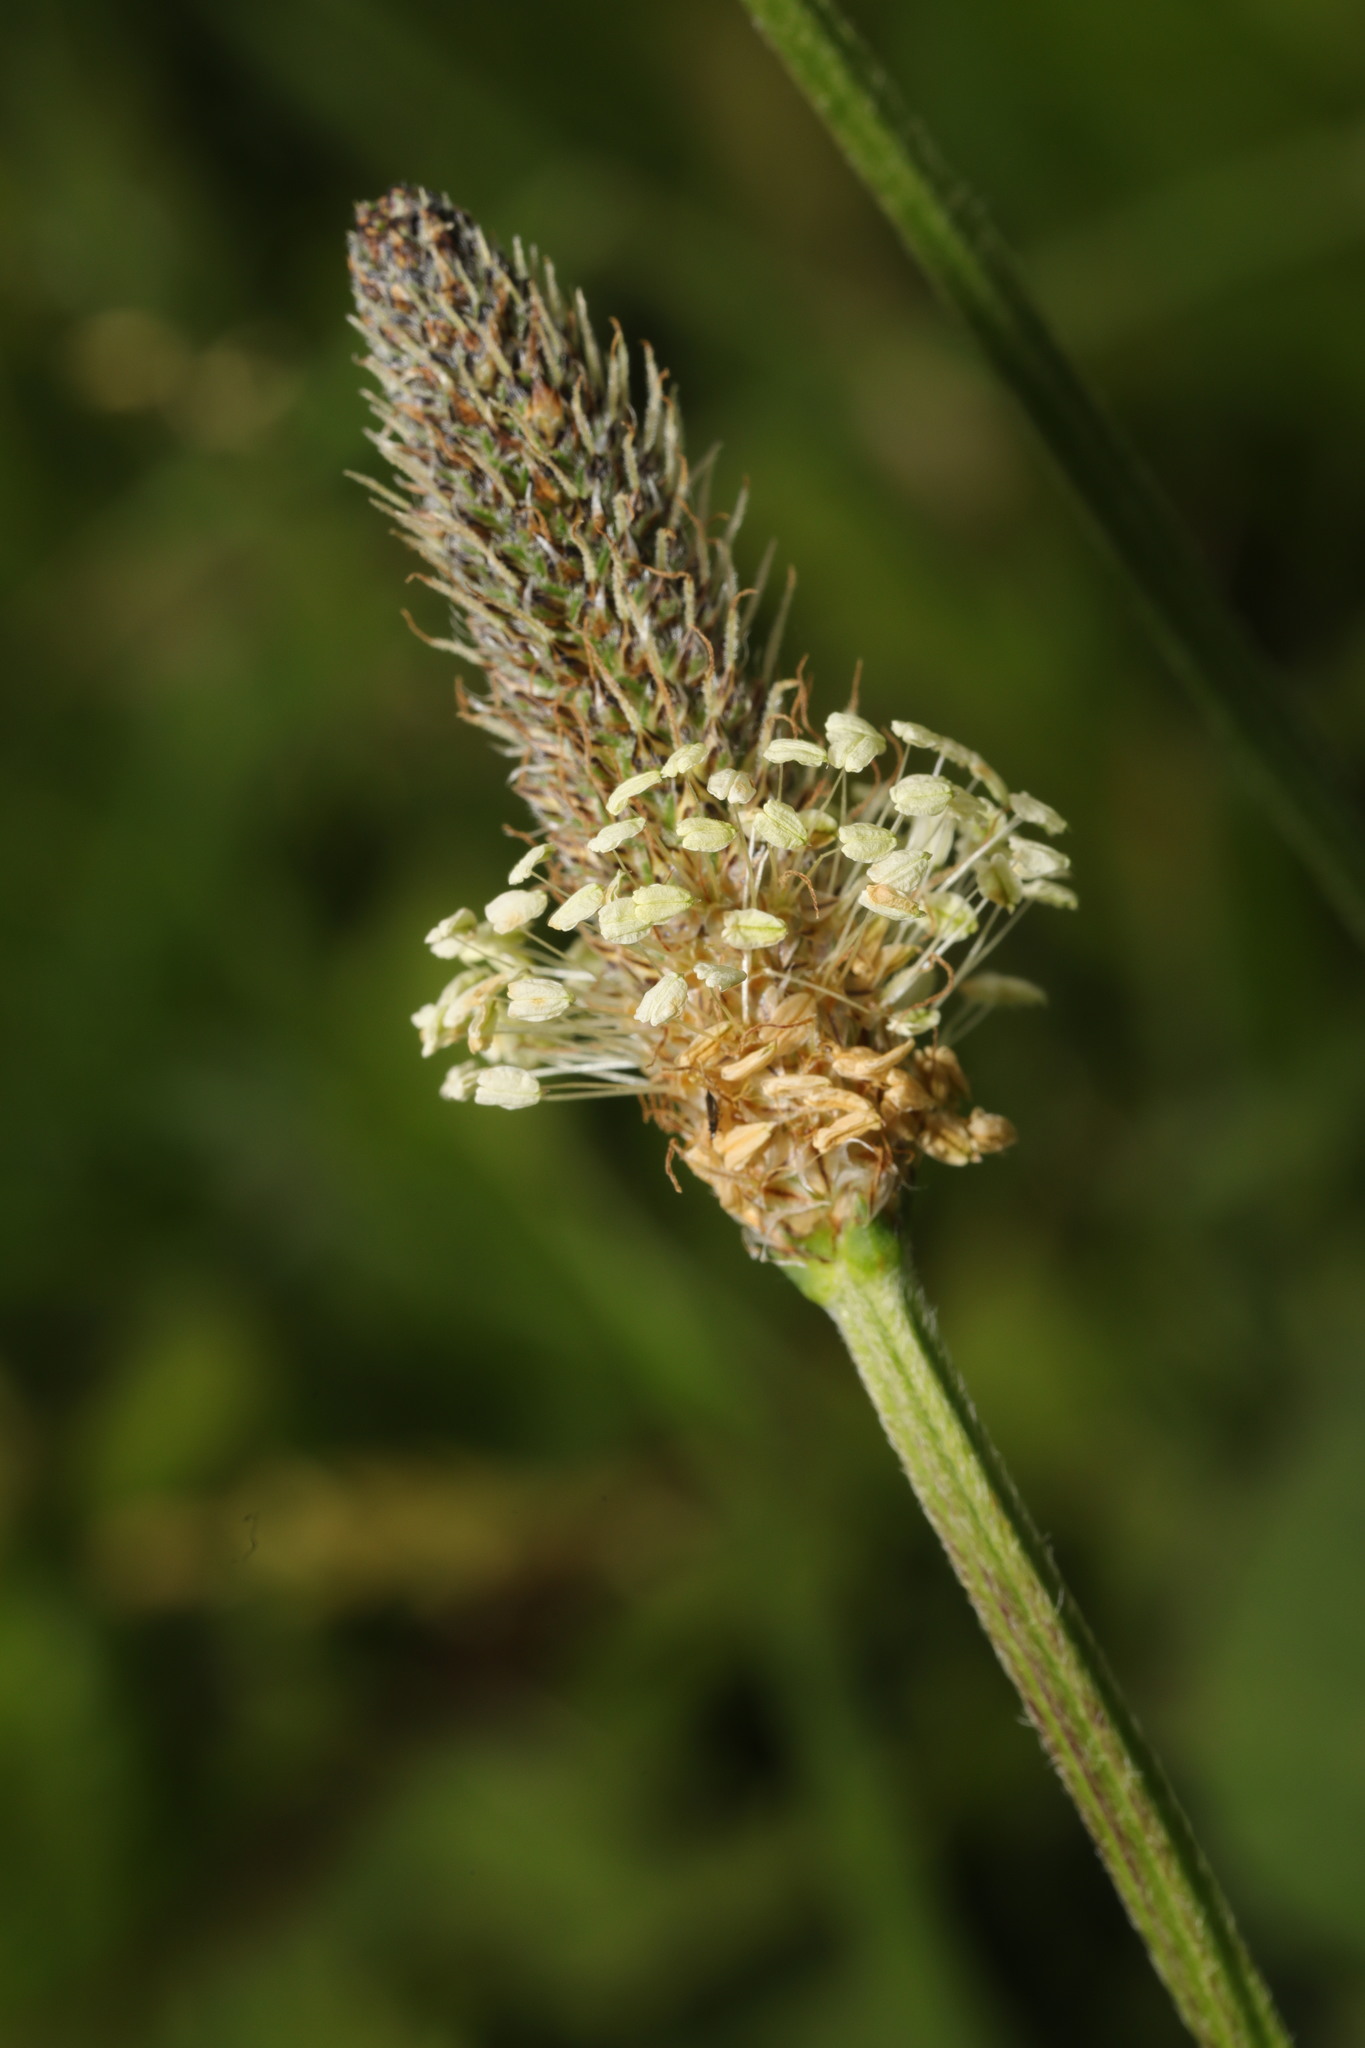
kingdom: Plantae
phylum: Tracheophyta
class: Magnoliopsida
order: Lamiales
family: Plantaginaceae
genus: Plantago
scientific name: Plantago lanceolata
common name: Ribwort plantain
